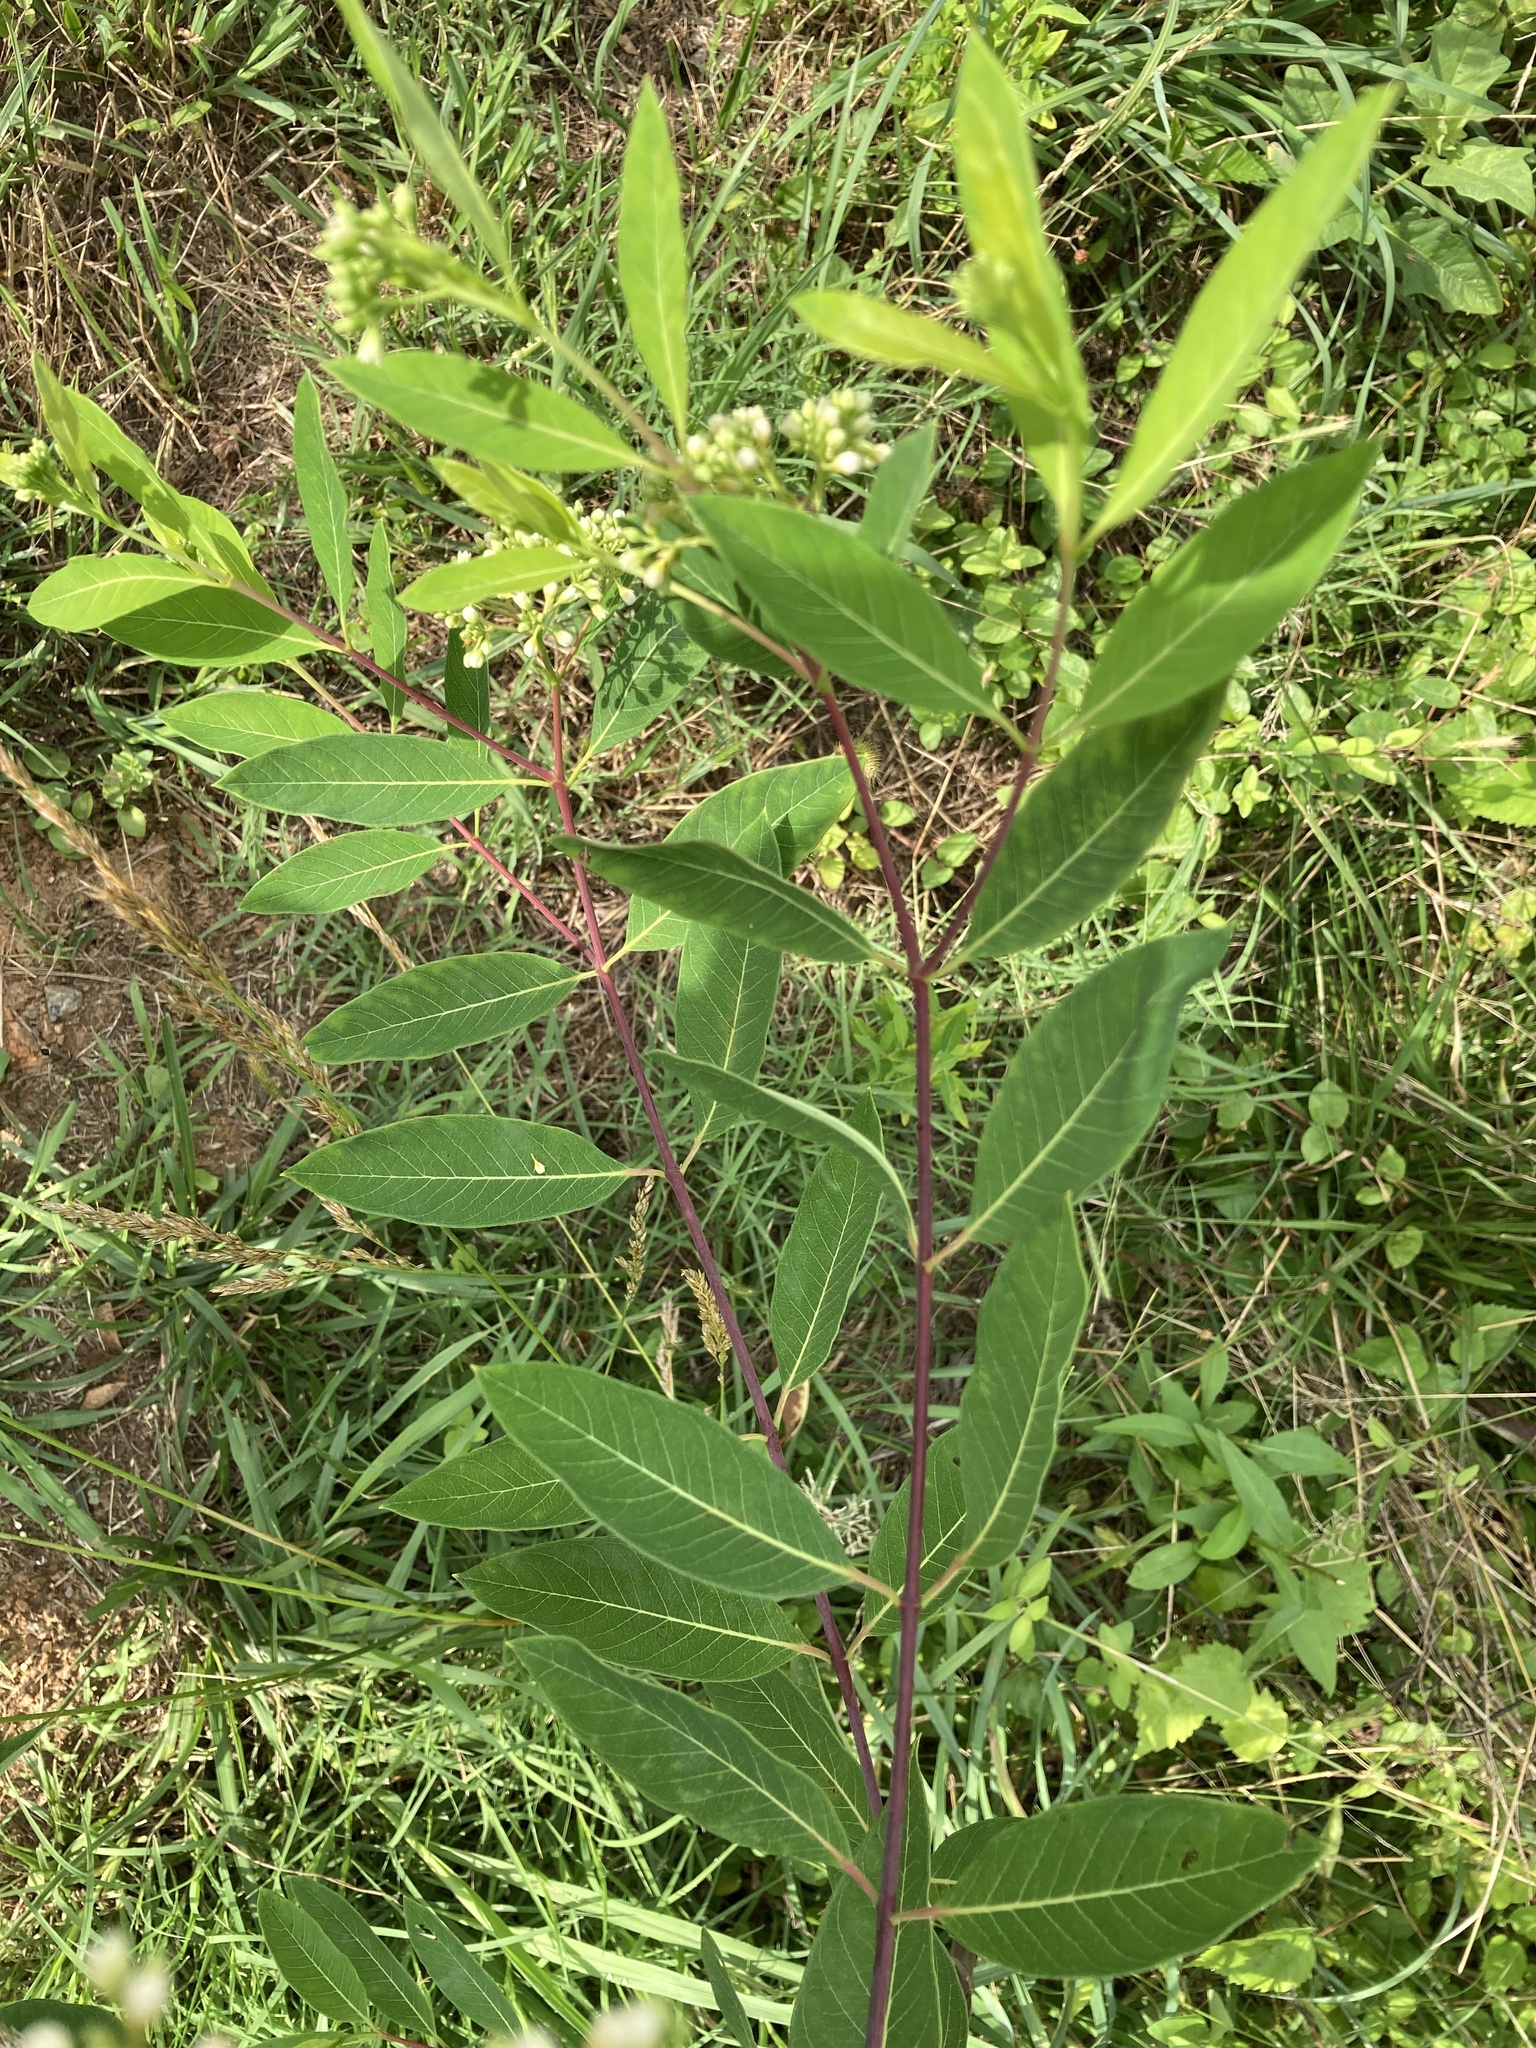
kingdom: Plantae
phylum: Tracheophyta
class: Magnoliopsida
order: Gentianales
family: Apocynaceae
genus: Apocynum
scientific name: Apocynum cannabinum
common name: Hemp dogbane
